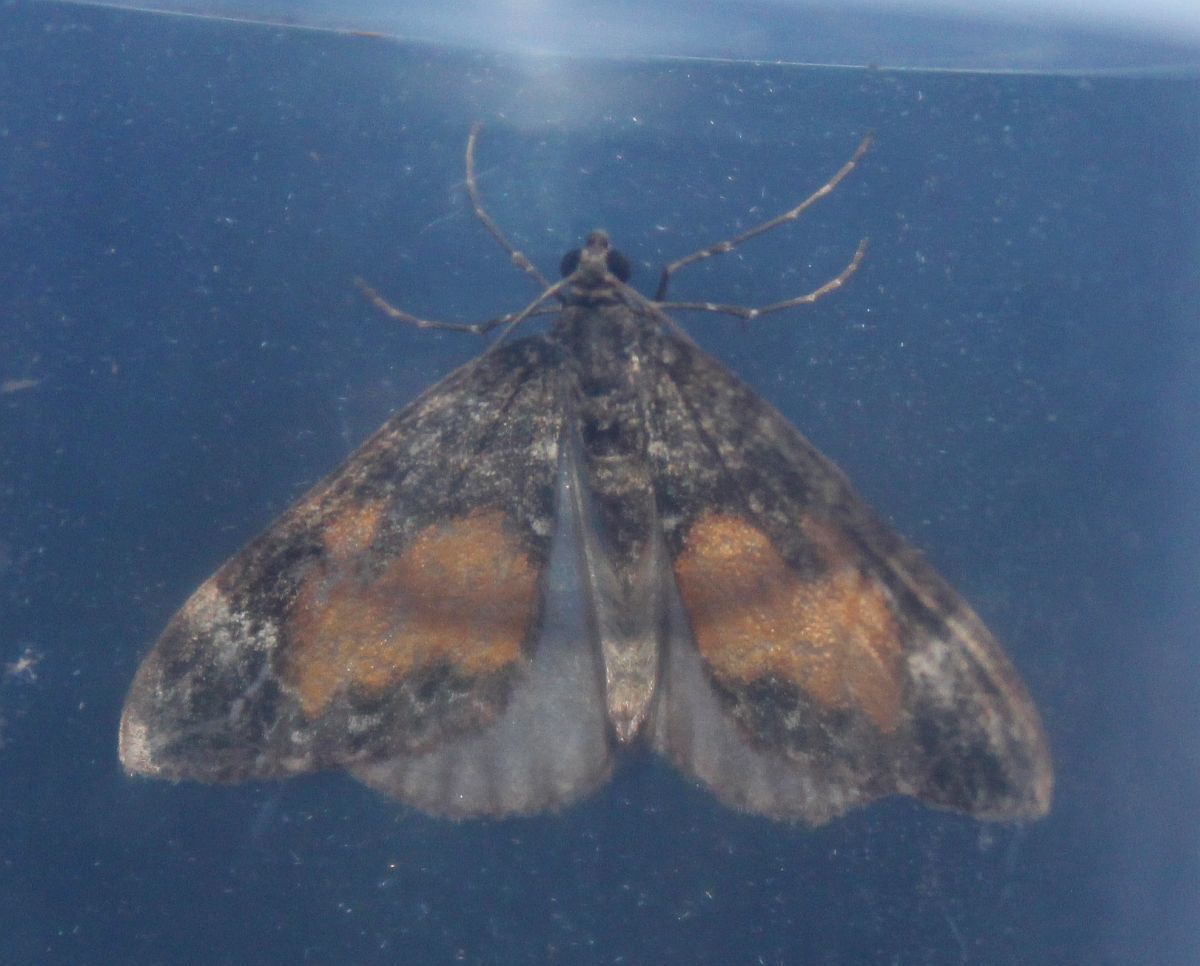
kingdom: Animalia
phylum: Arthropoda
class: Insecta
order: Lepidoptera
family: Geometridae
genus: Dysstroma
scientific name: Dysstroma truncata
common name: Common marbled carpet
